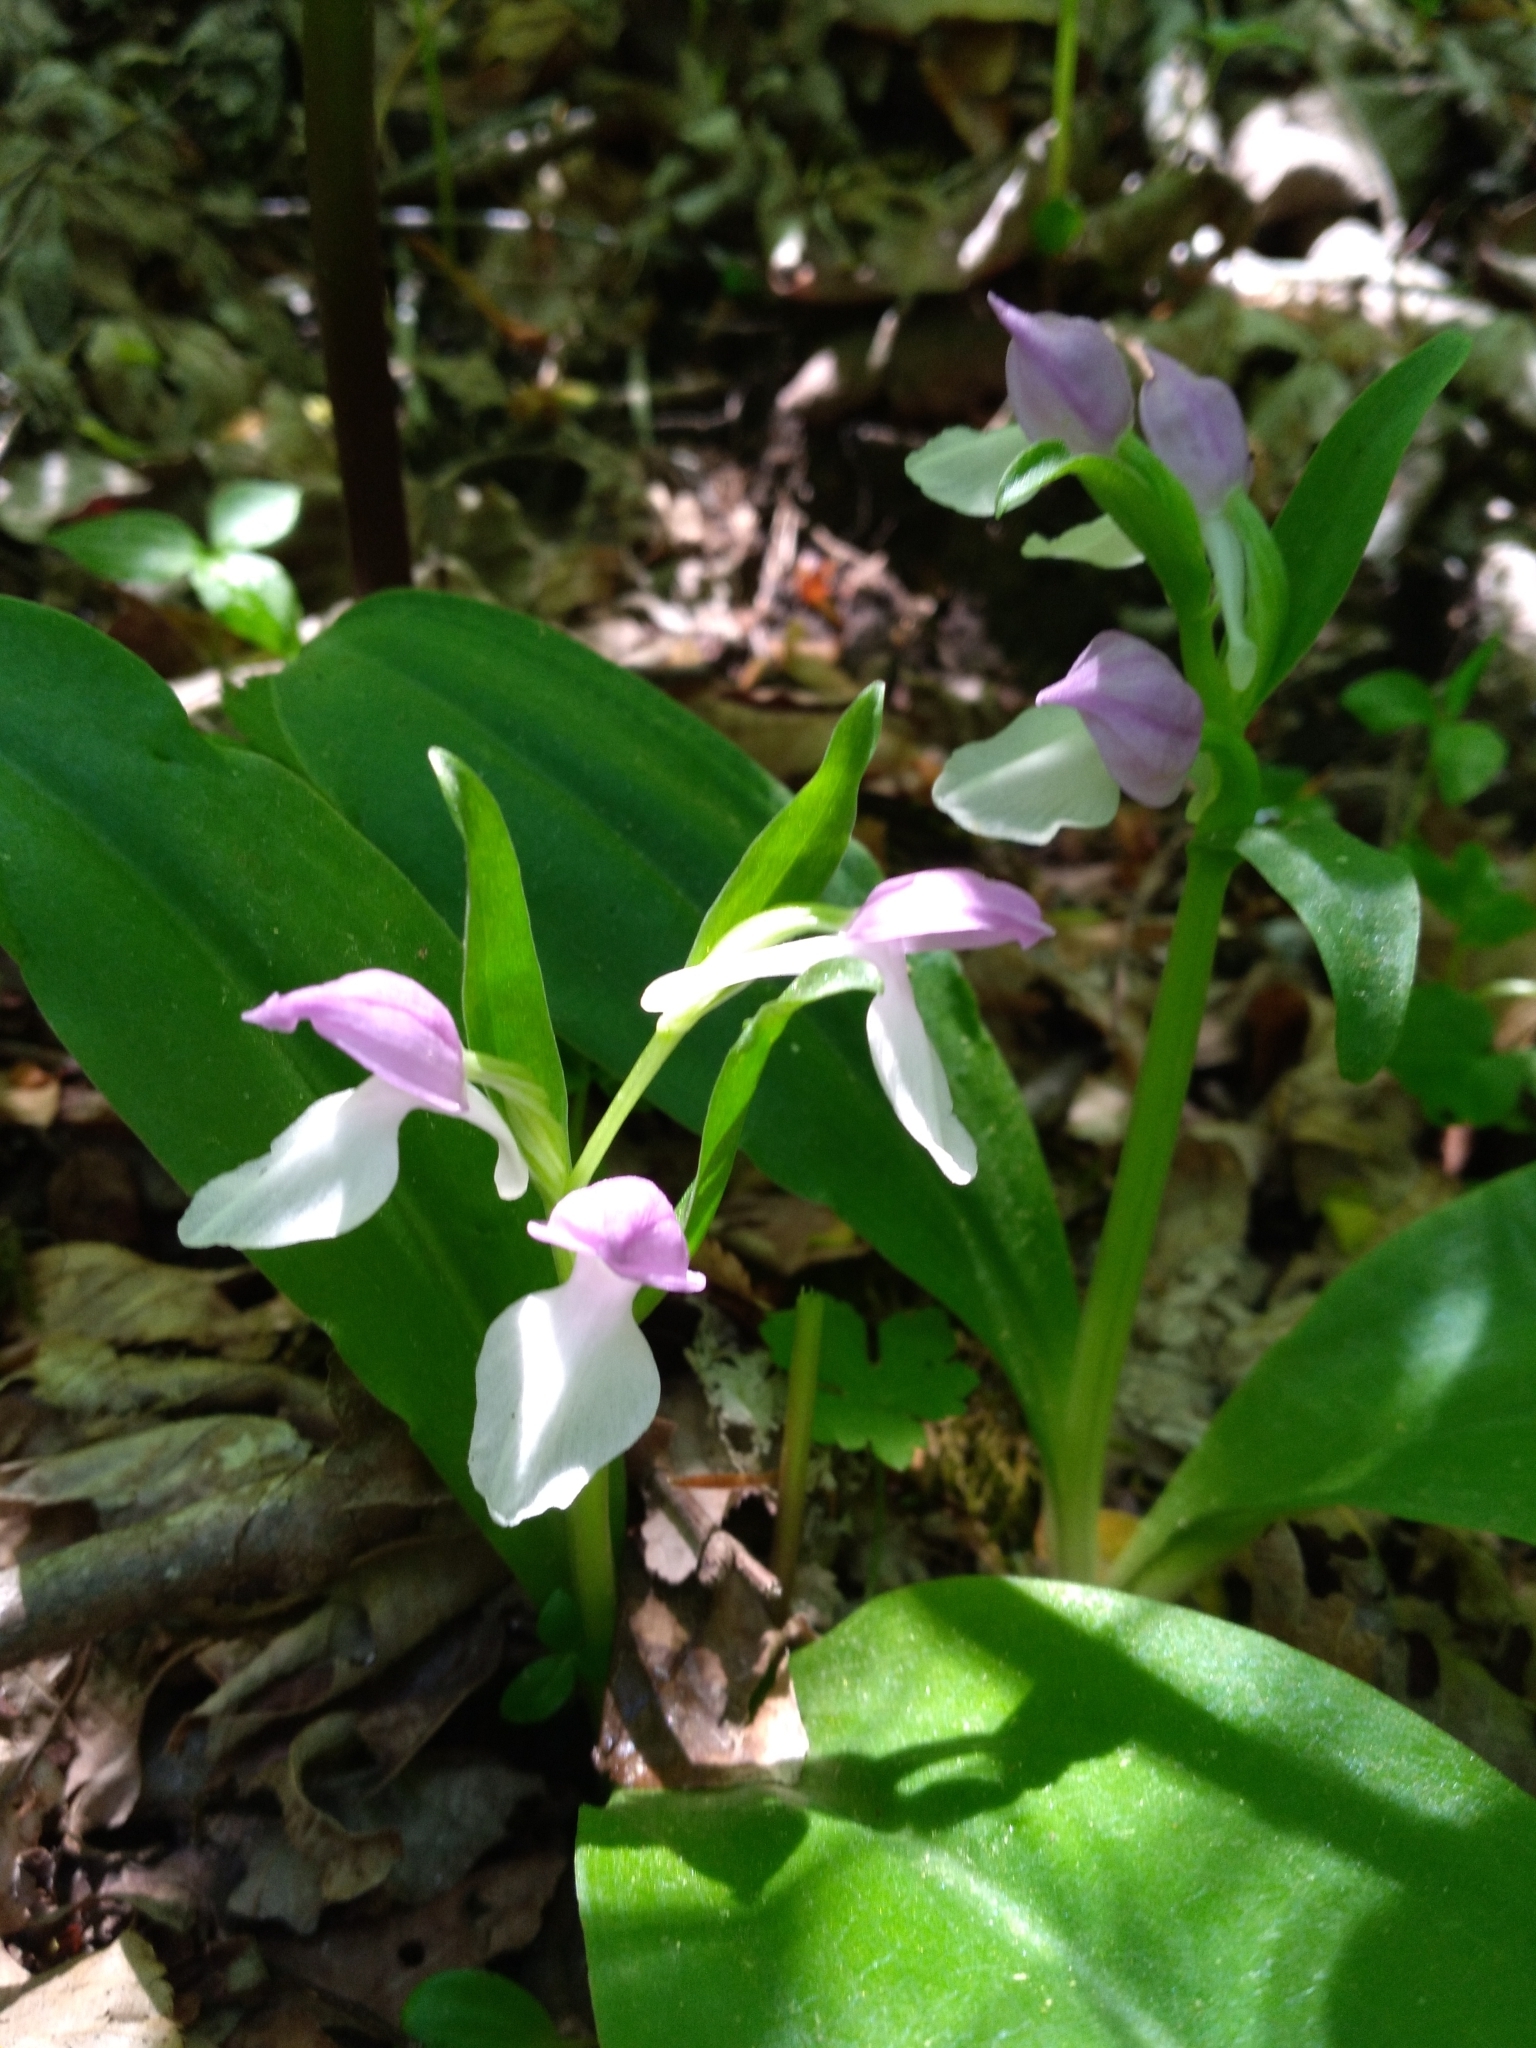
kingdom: Plantae
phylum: Tracheophyta
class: Liliopsida
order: Asparagales
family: Orchidaceae
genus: Galearis
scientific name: Galearis spectabilis
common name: Purple-hooded orchis
